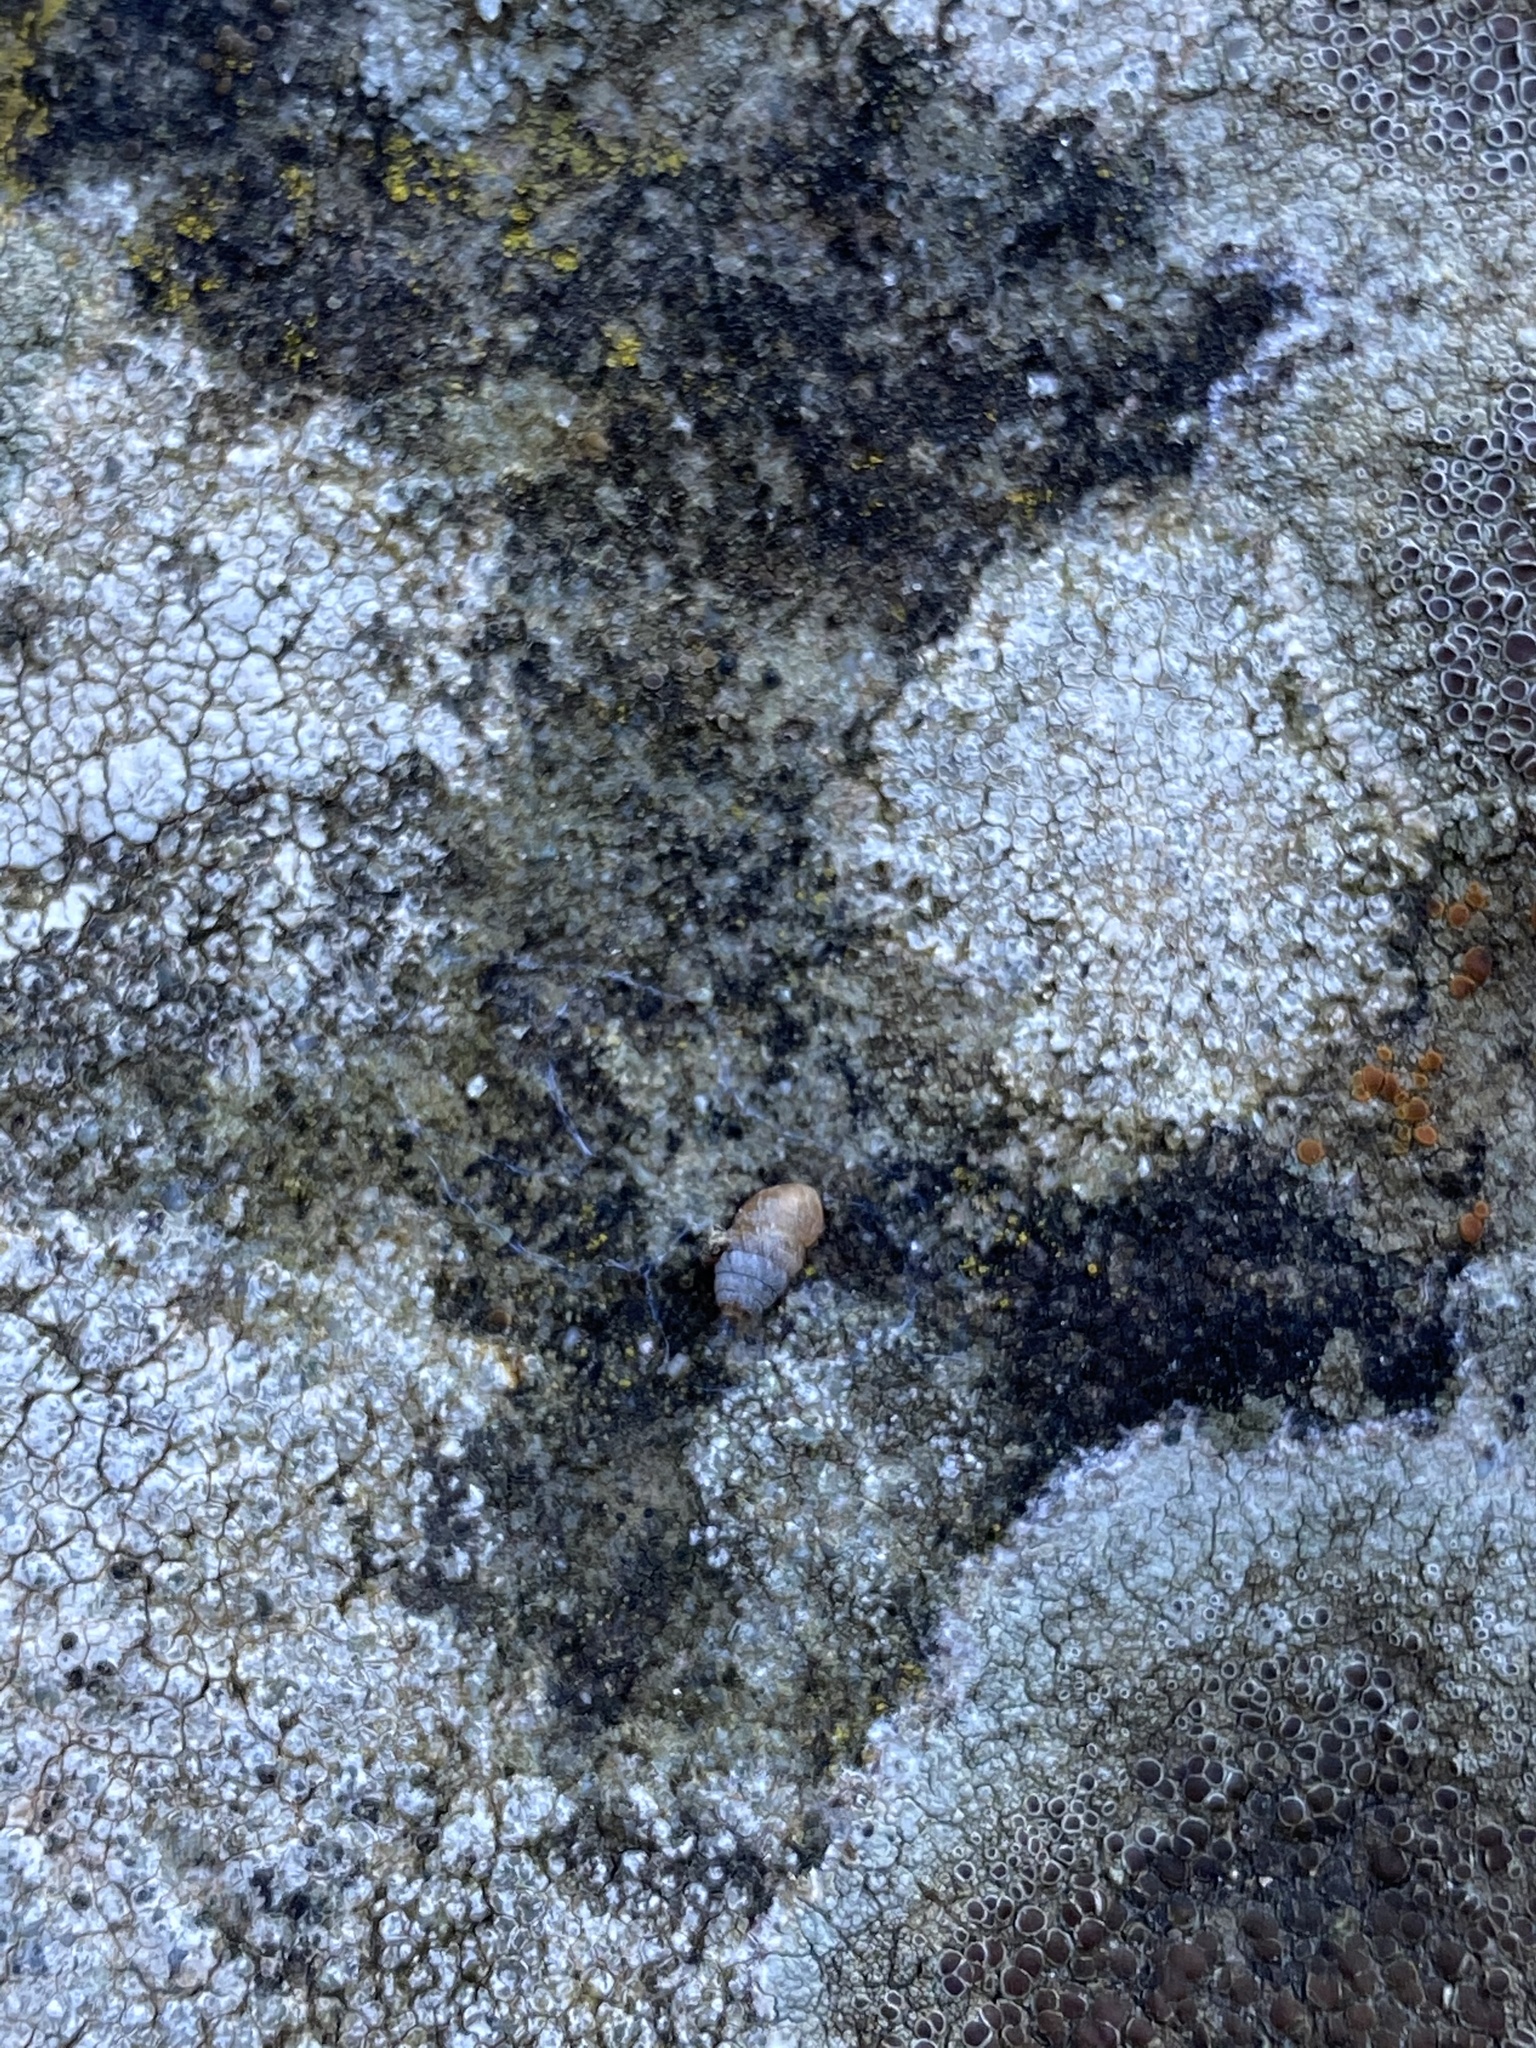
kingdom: Animalia
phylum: Mollusca
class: Gastropoda
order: Stylommatophora
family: Lauriidae
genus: Lauria
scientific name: Lauria cylindracea
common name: Common chrysalis snail
